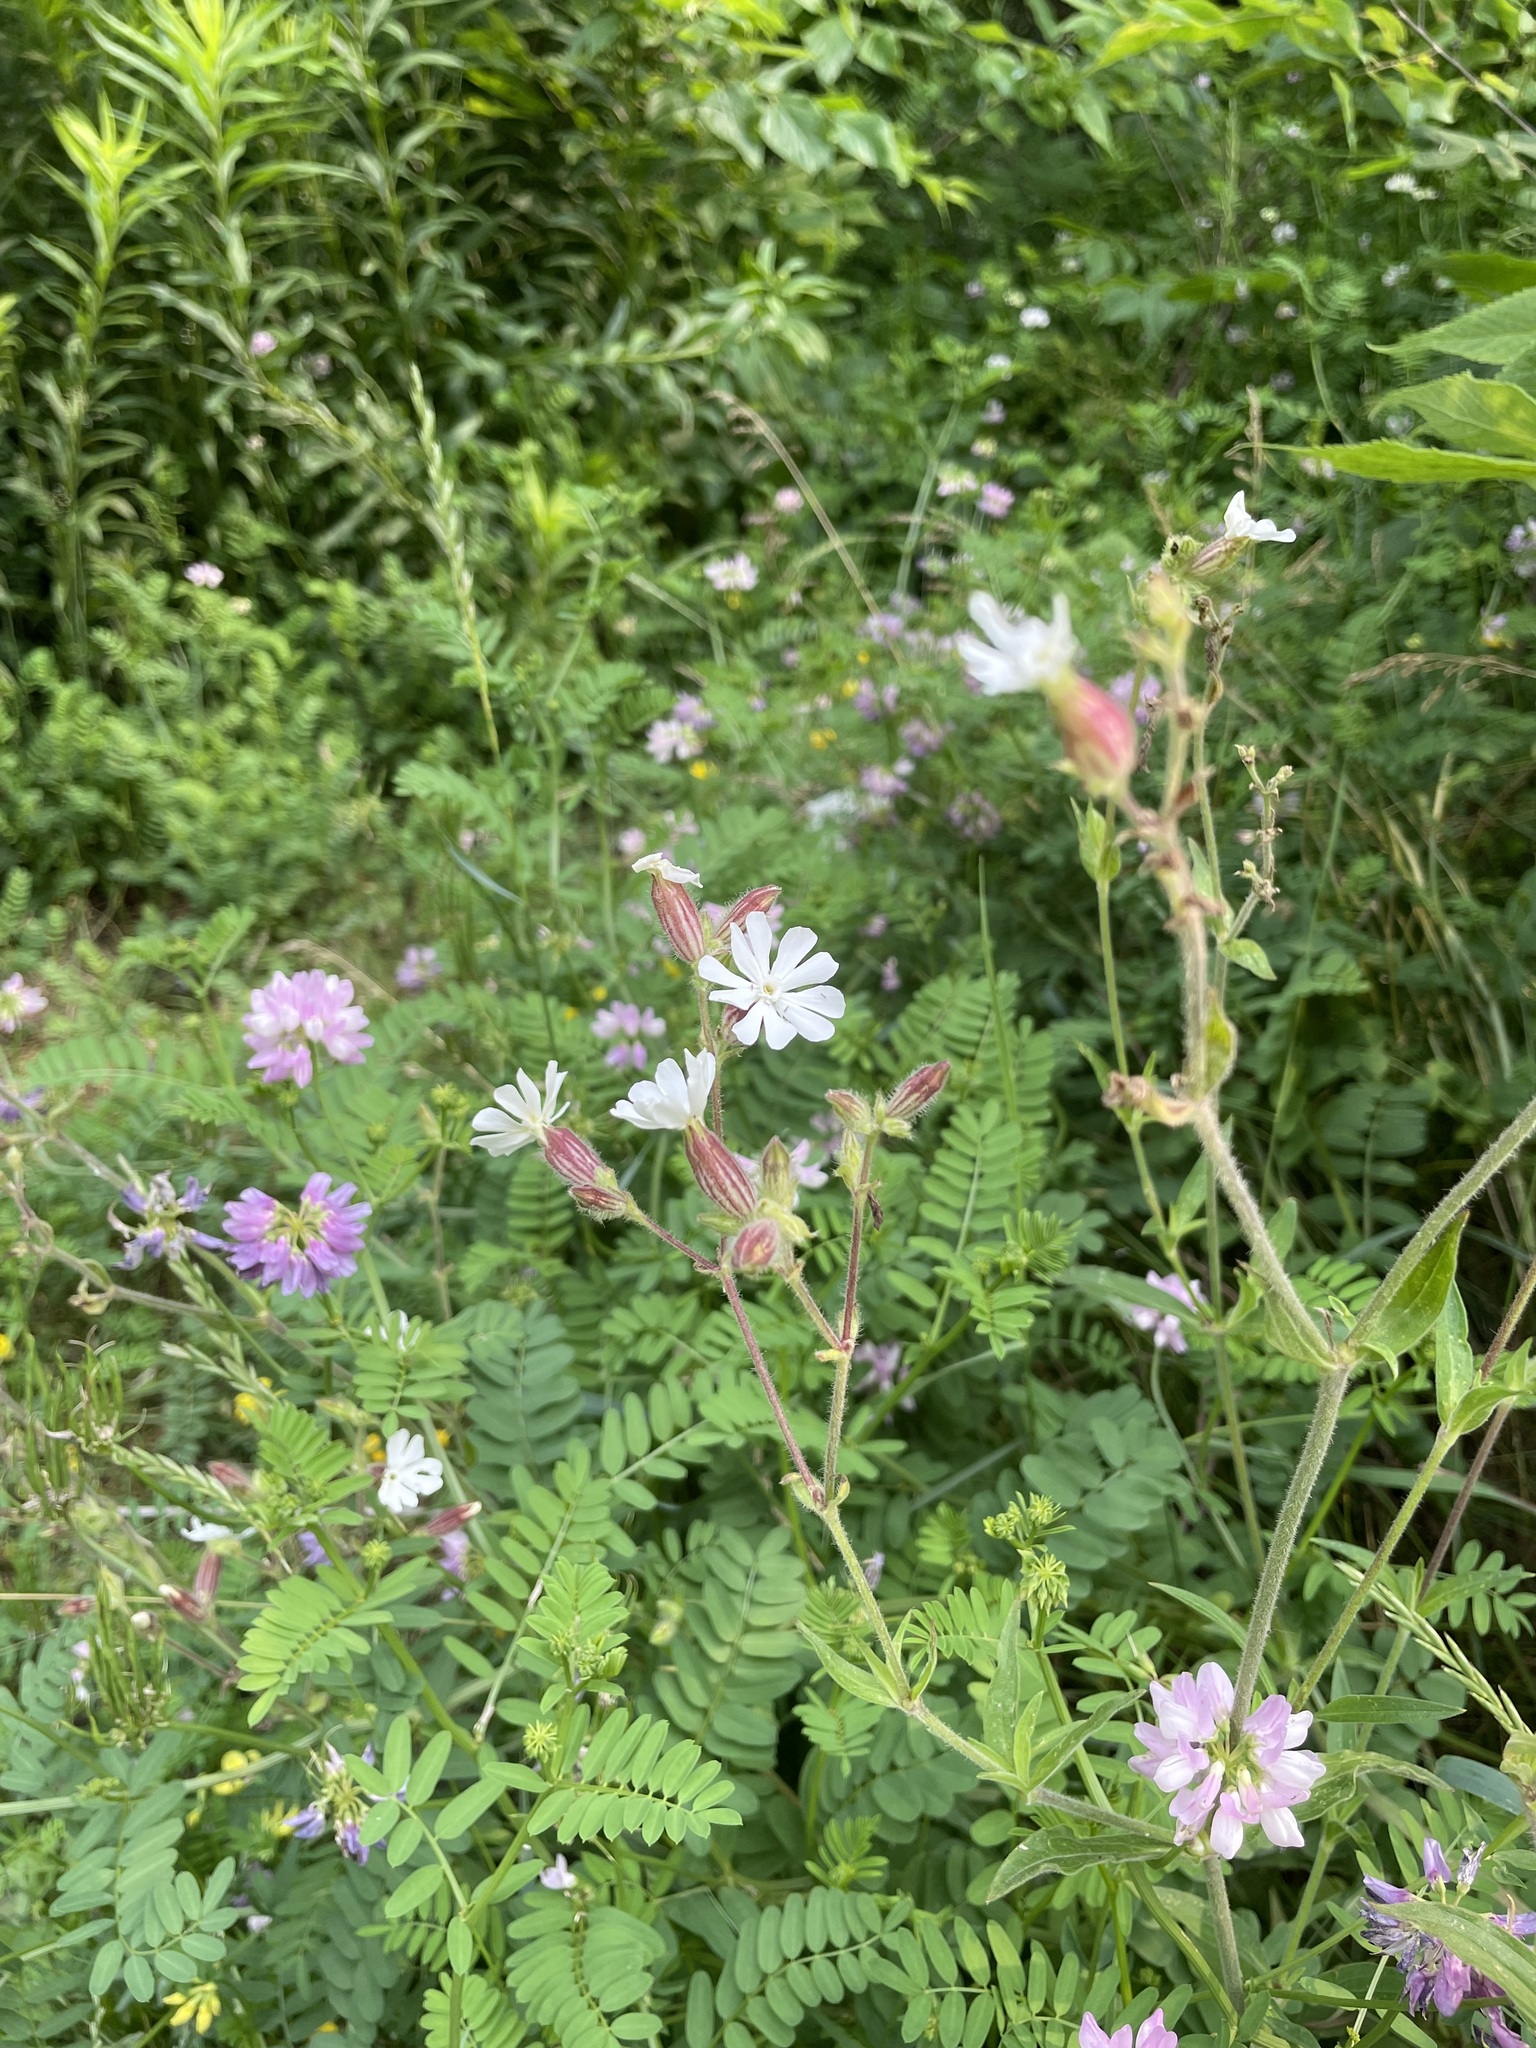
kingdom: Plantae
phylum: Tracheophyta
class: Magnoliopsida
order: Caryophyllales
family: Caryophyllaceae
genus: Silene
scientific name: Silene latifolia
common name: White campion
